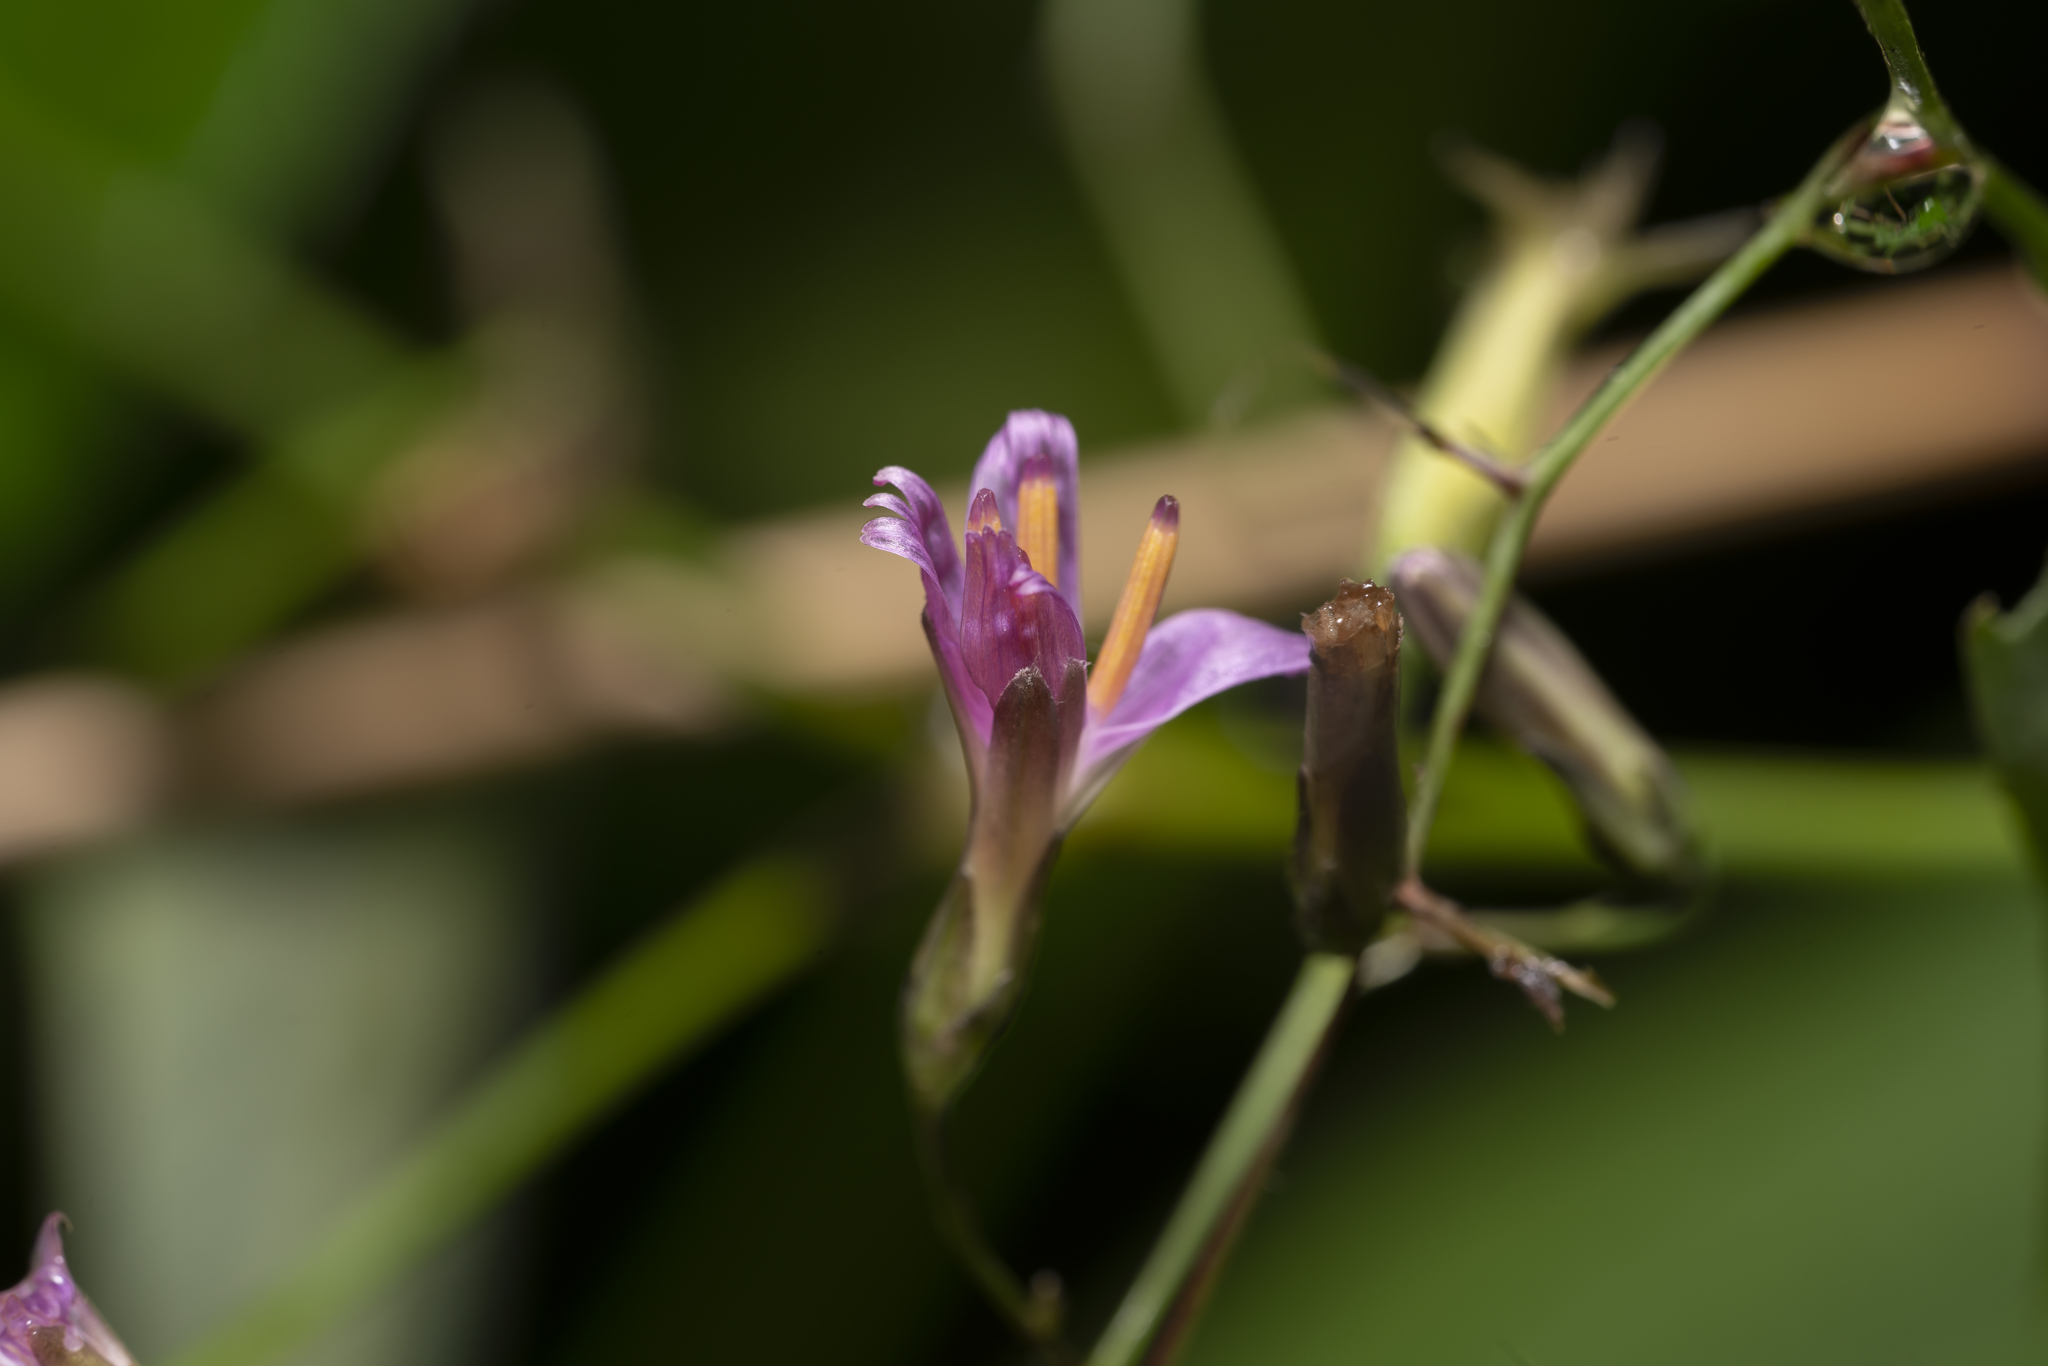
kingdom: Plantae
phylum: Tracheophyta
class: Magnoliopsida
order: Asterales
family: Asteraceae
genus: Prenanthes
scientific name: Prenanthes purpurea
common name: Purple lettuce
